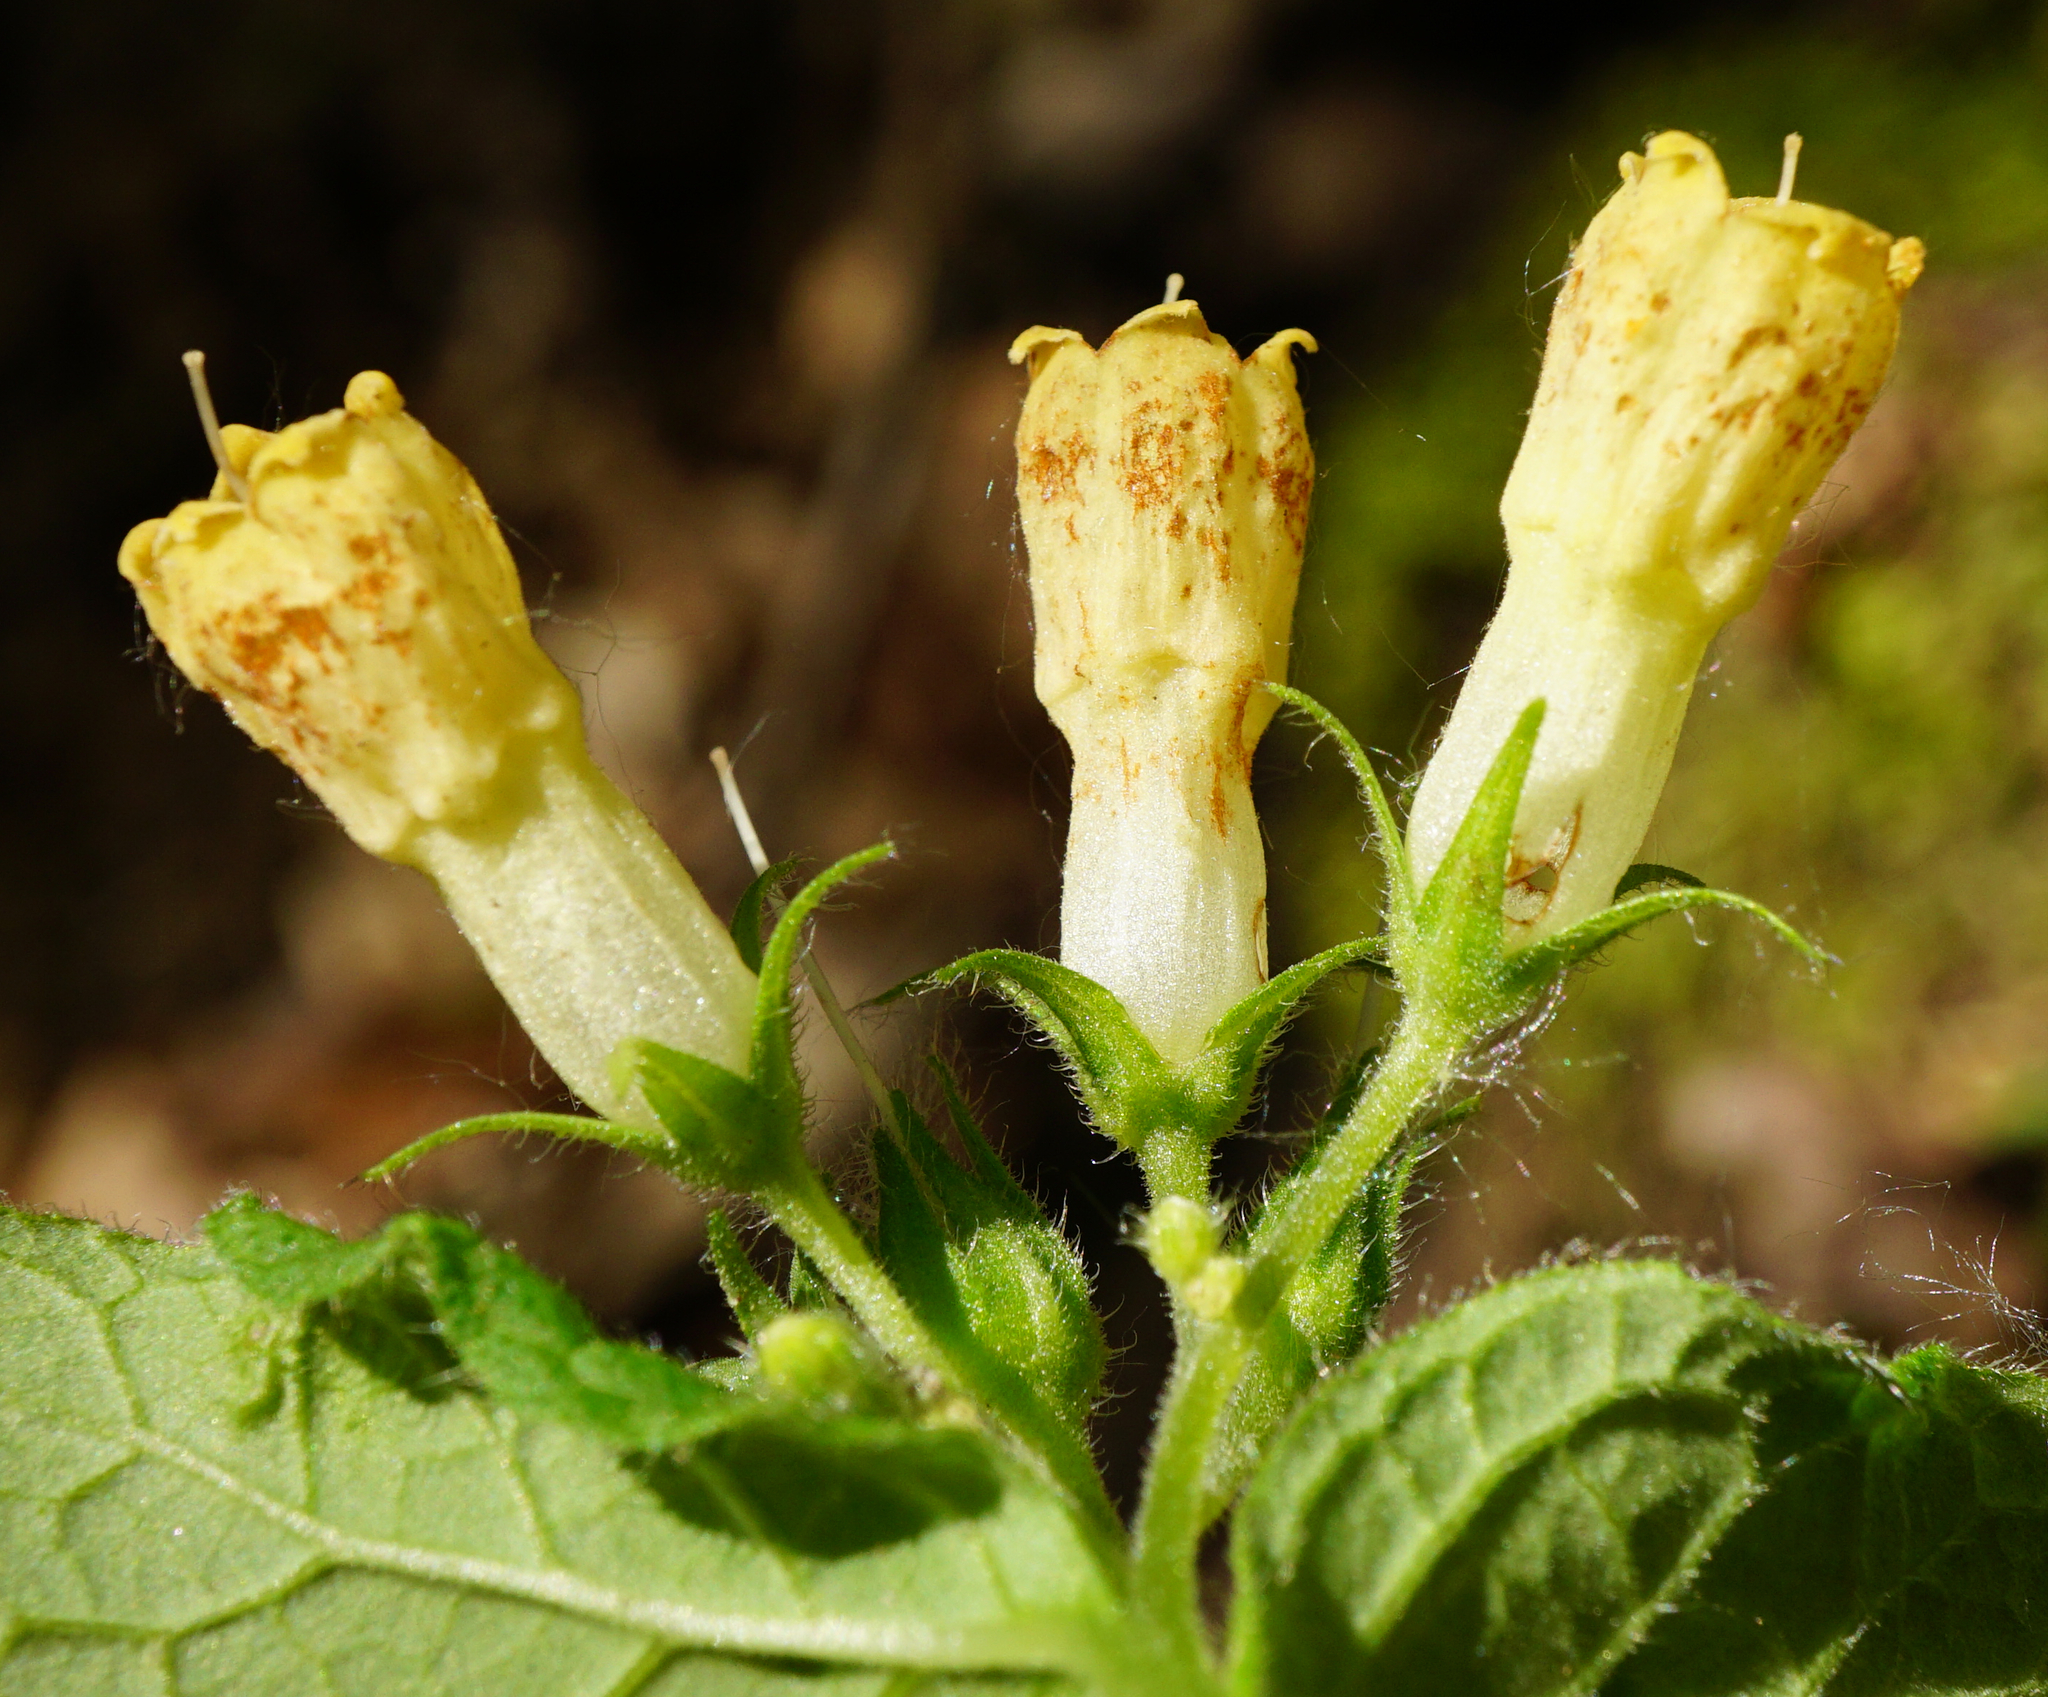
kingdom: Plantae
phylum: Tracheophyta
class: Magnoliopsida
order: Boraginales
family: Boraginaceae
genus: Symphytum
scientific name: Symphytum tuberosum
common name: Tuberous comfrey
